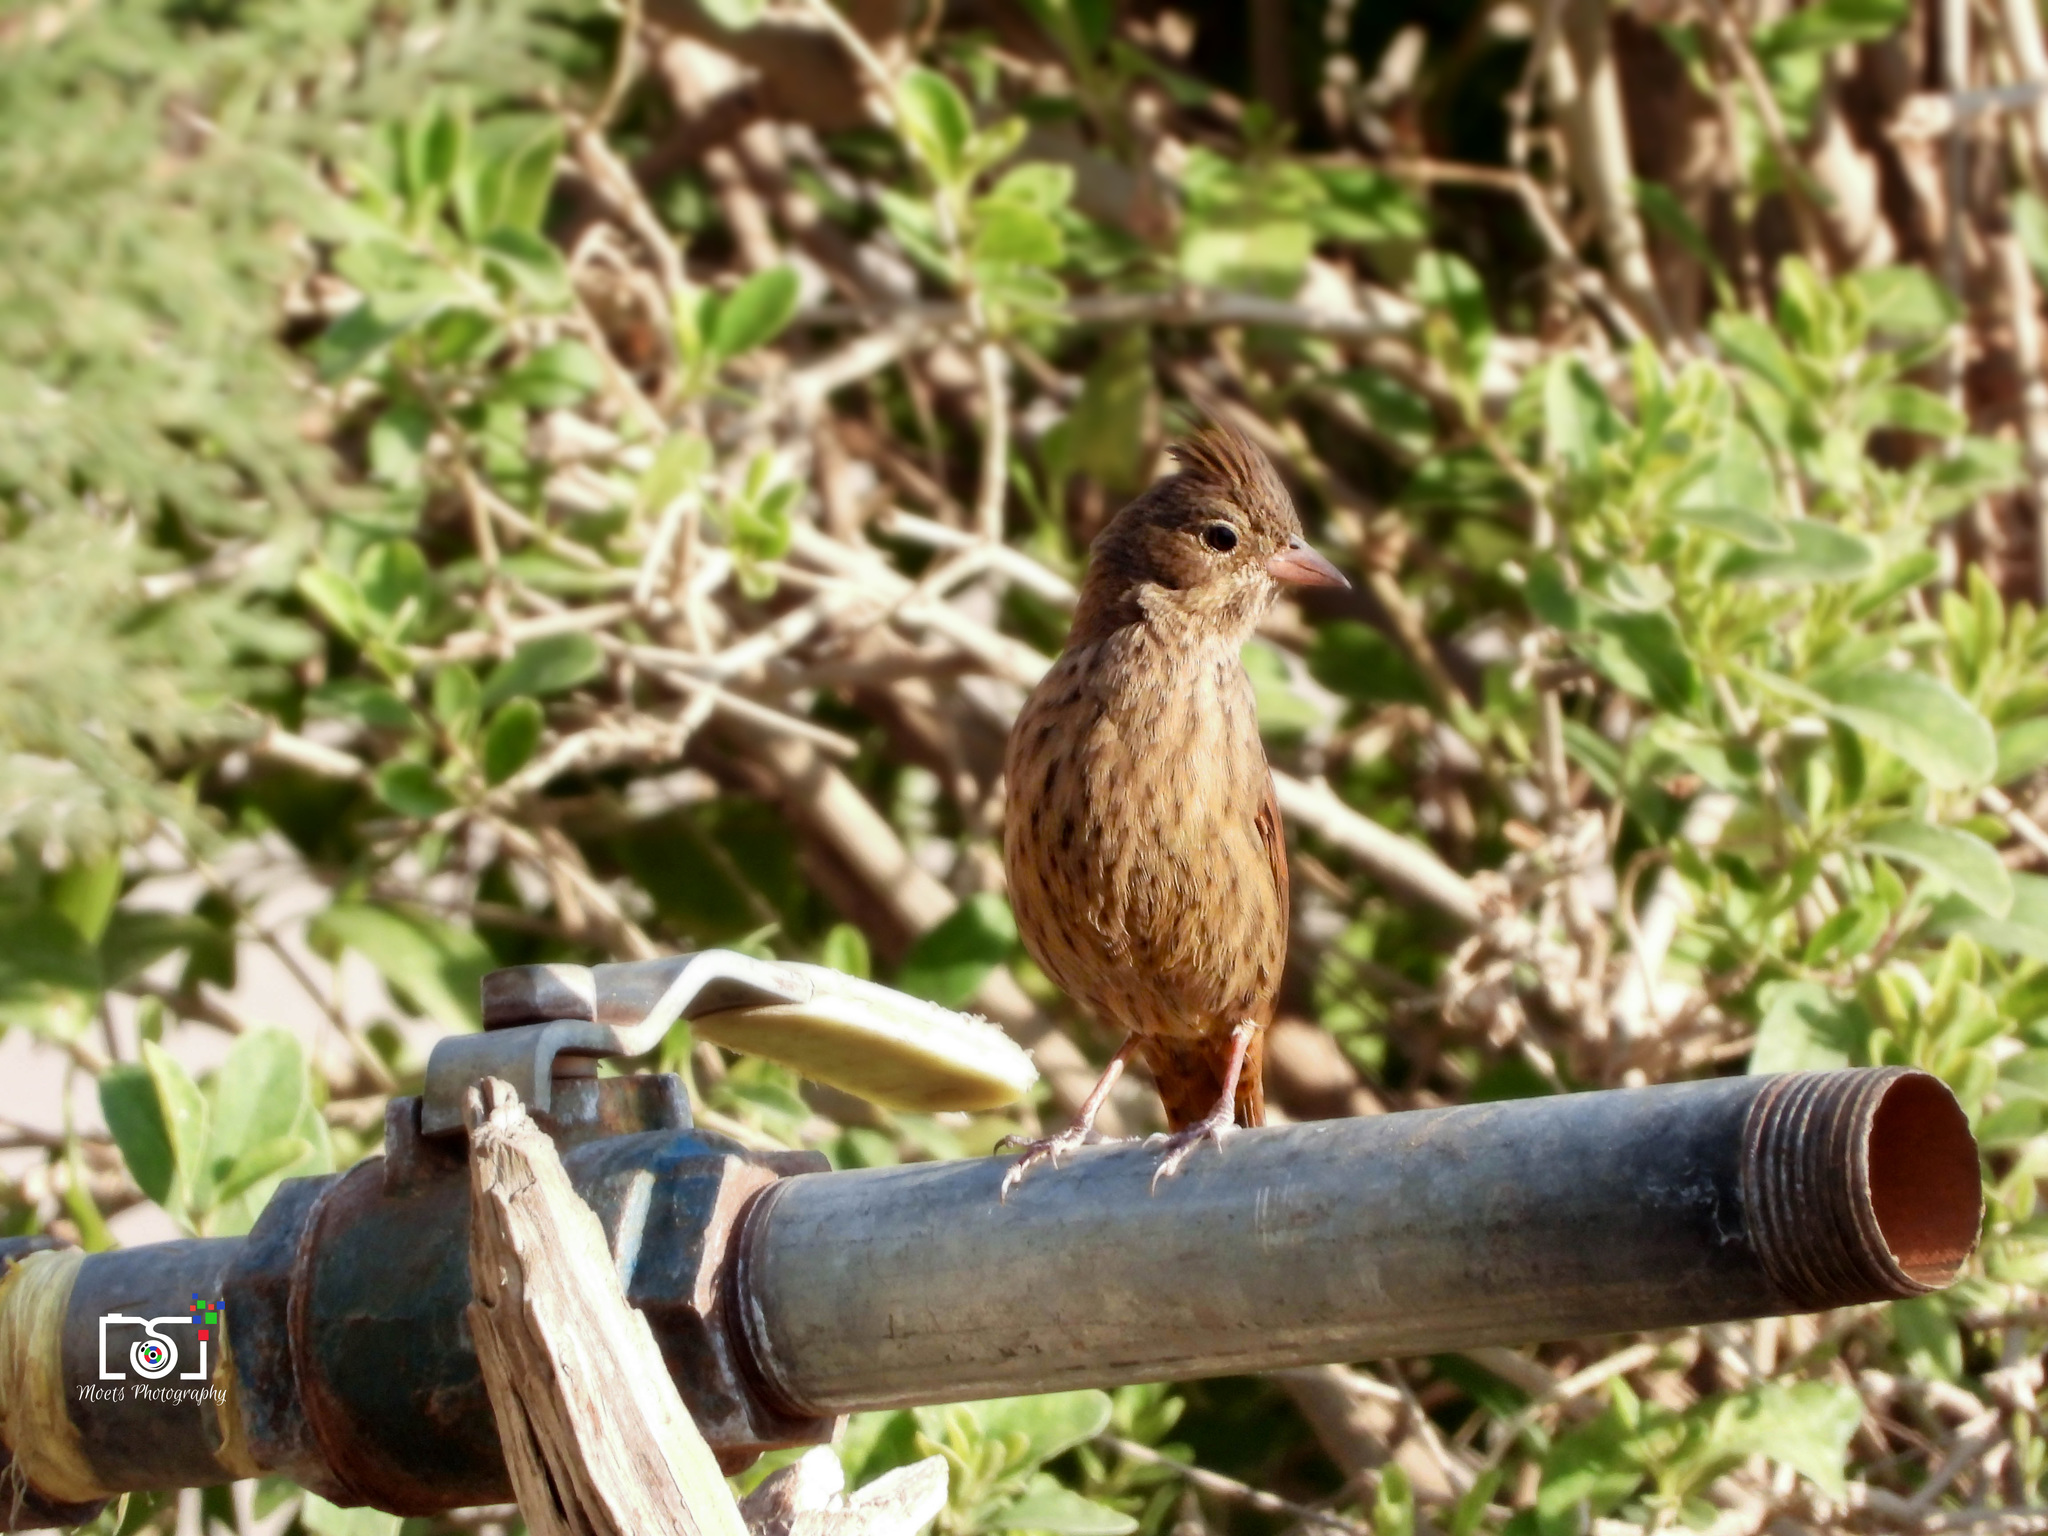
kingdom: Animalia
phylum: Chordata
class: Aves
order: Passeriformes
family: Emberizidae
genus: Emberiza
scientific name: Emberiza lathami
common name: Crested bunting
